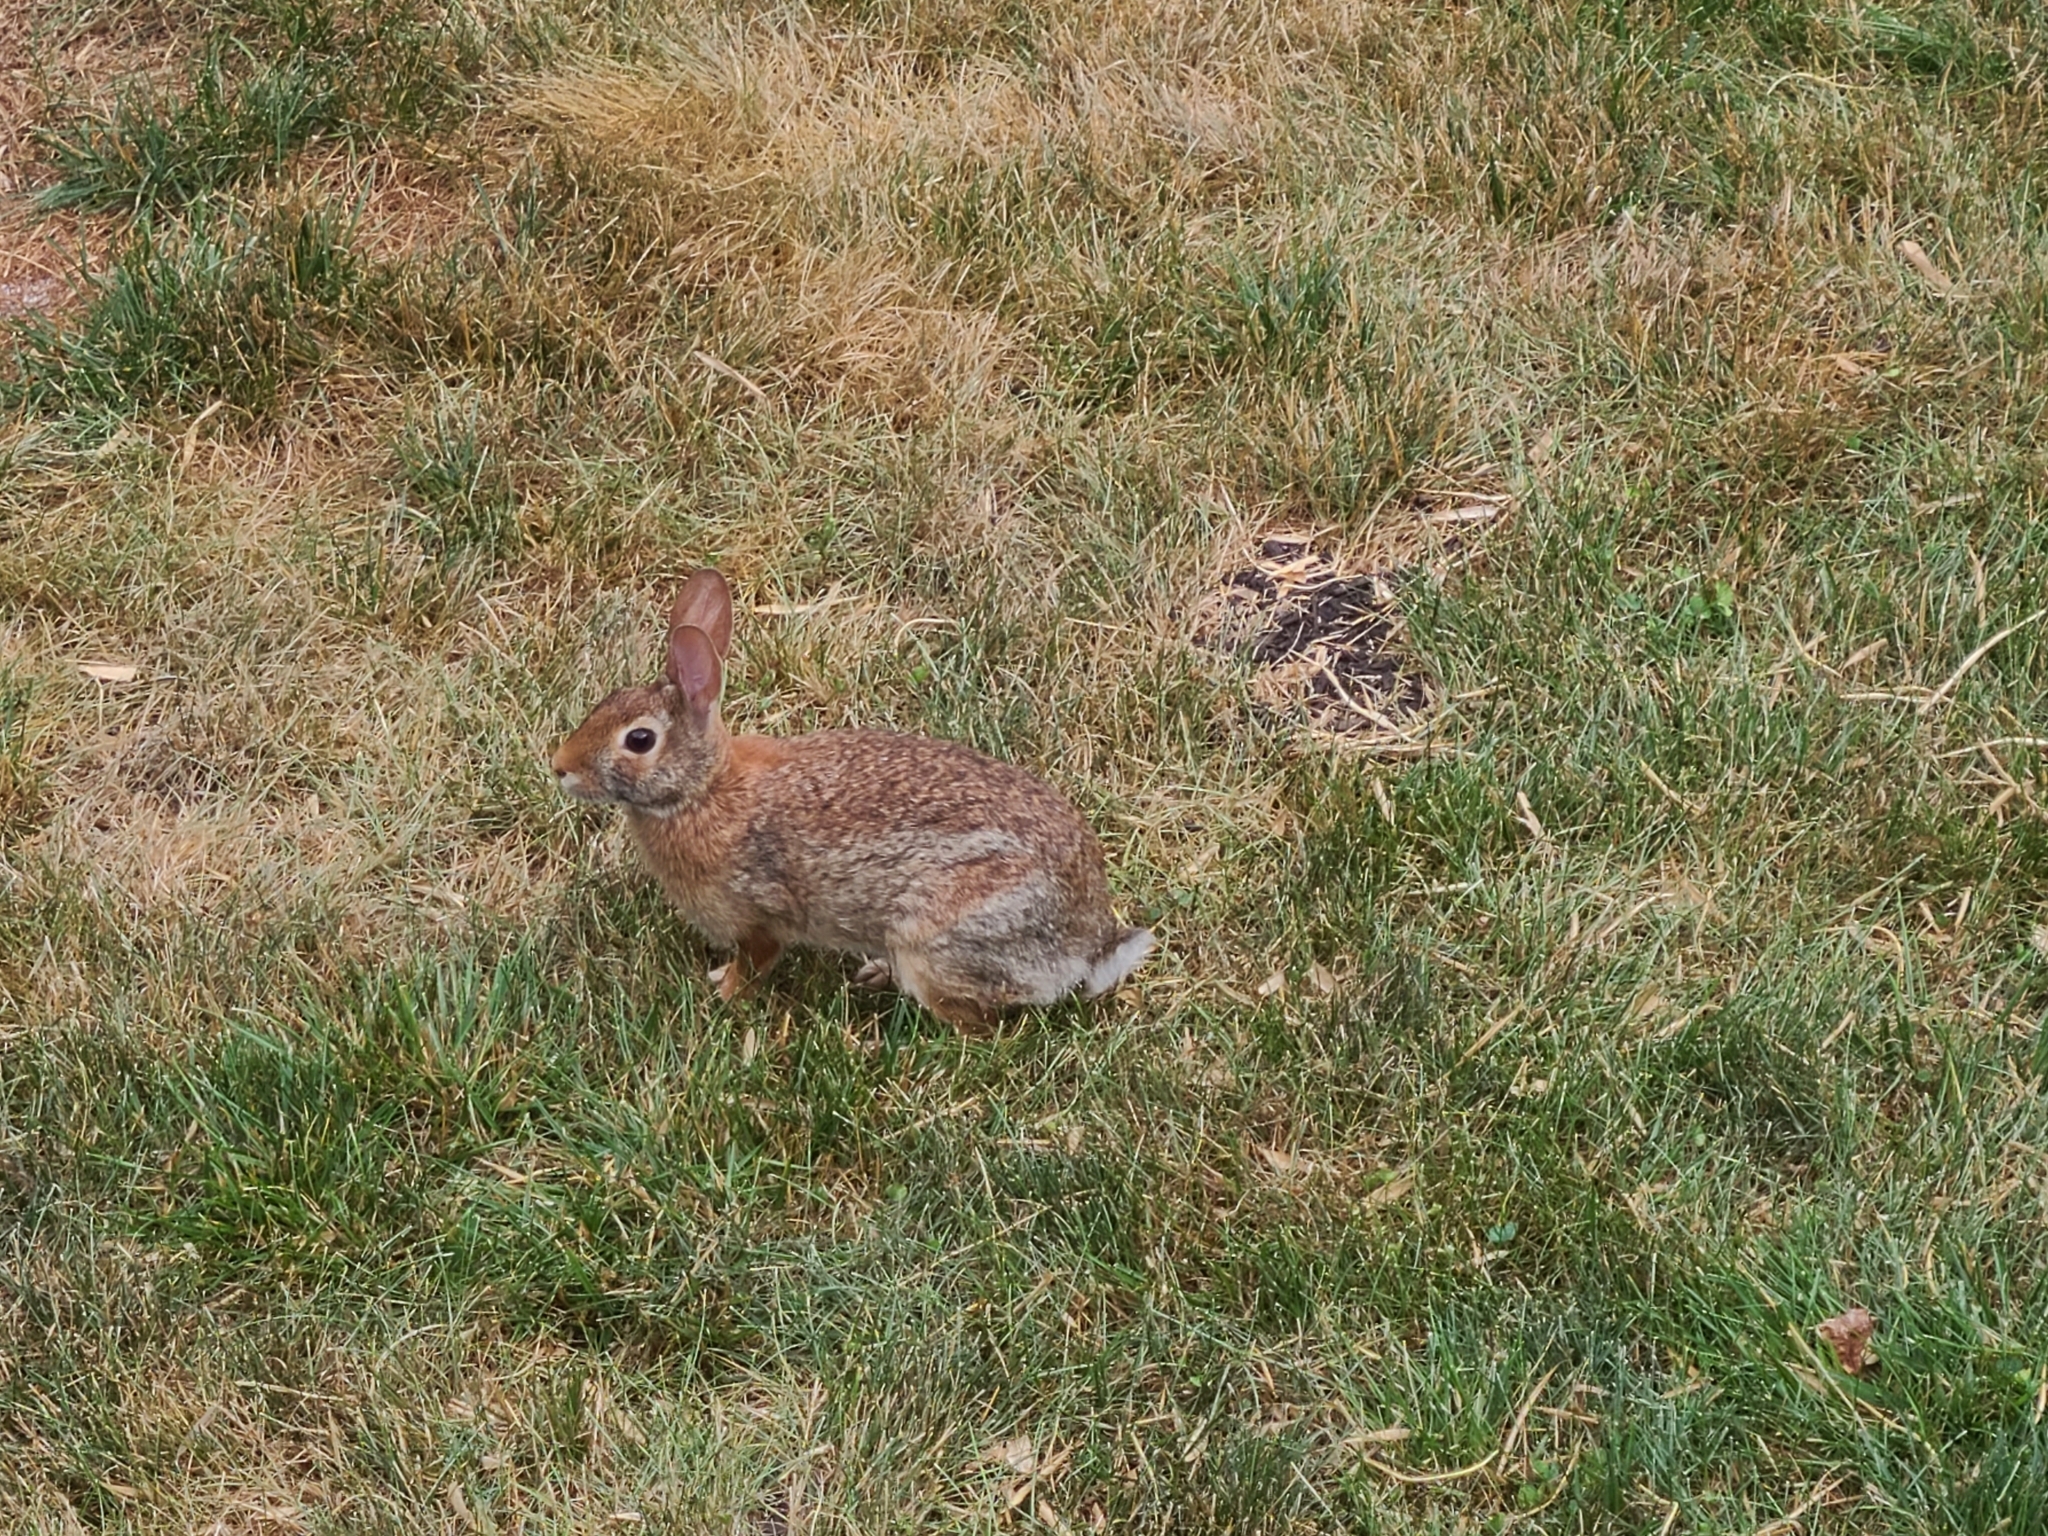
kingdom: Animalia
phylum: Chordata
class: Mammalia
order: Lagomorpha
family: Leporidae
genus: Sylvilagus
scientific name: Sylvilagus floridanus
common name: Eastern cottontail
